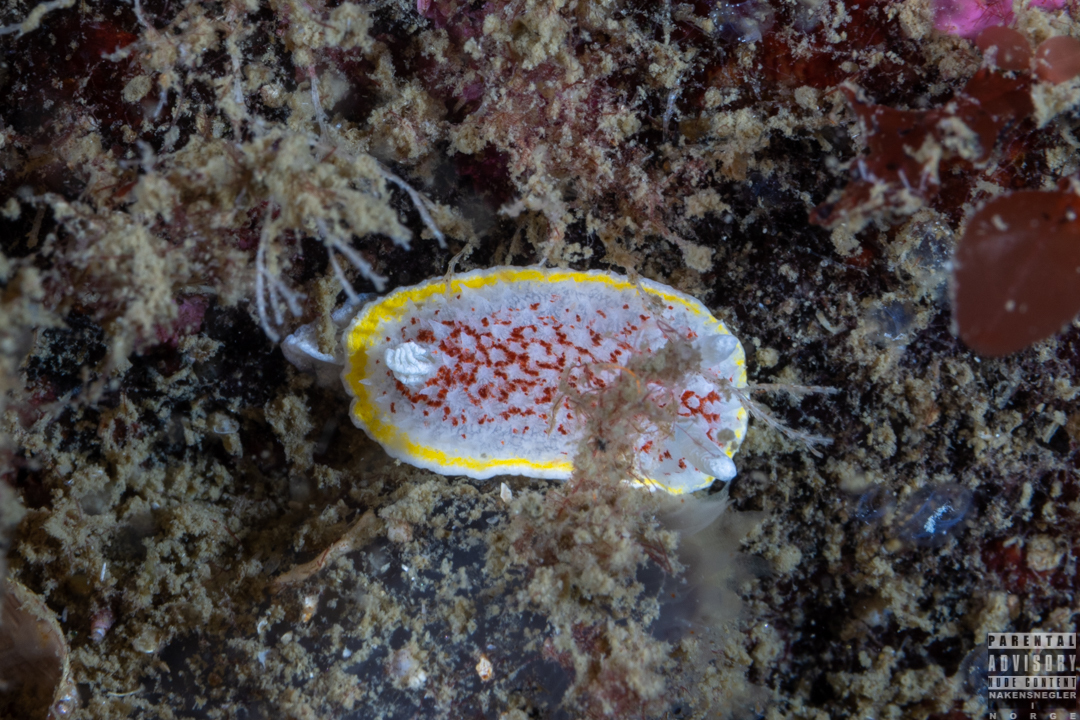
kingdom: Animalia
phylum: Mollusca
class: Gastropoda
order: Nudibranchia
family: Calycidorididae
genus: Diaphorodoris
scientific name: Diaphorodoris luteocincta
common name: Fried egg nudibranch
